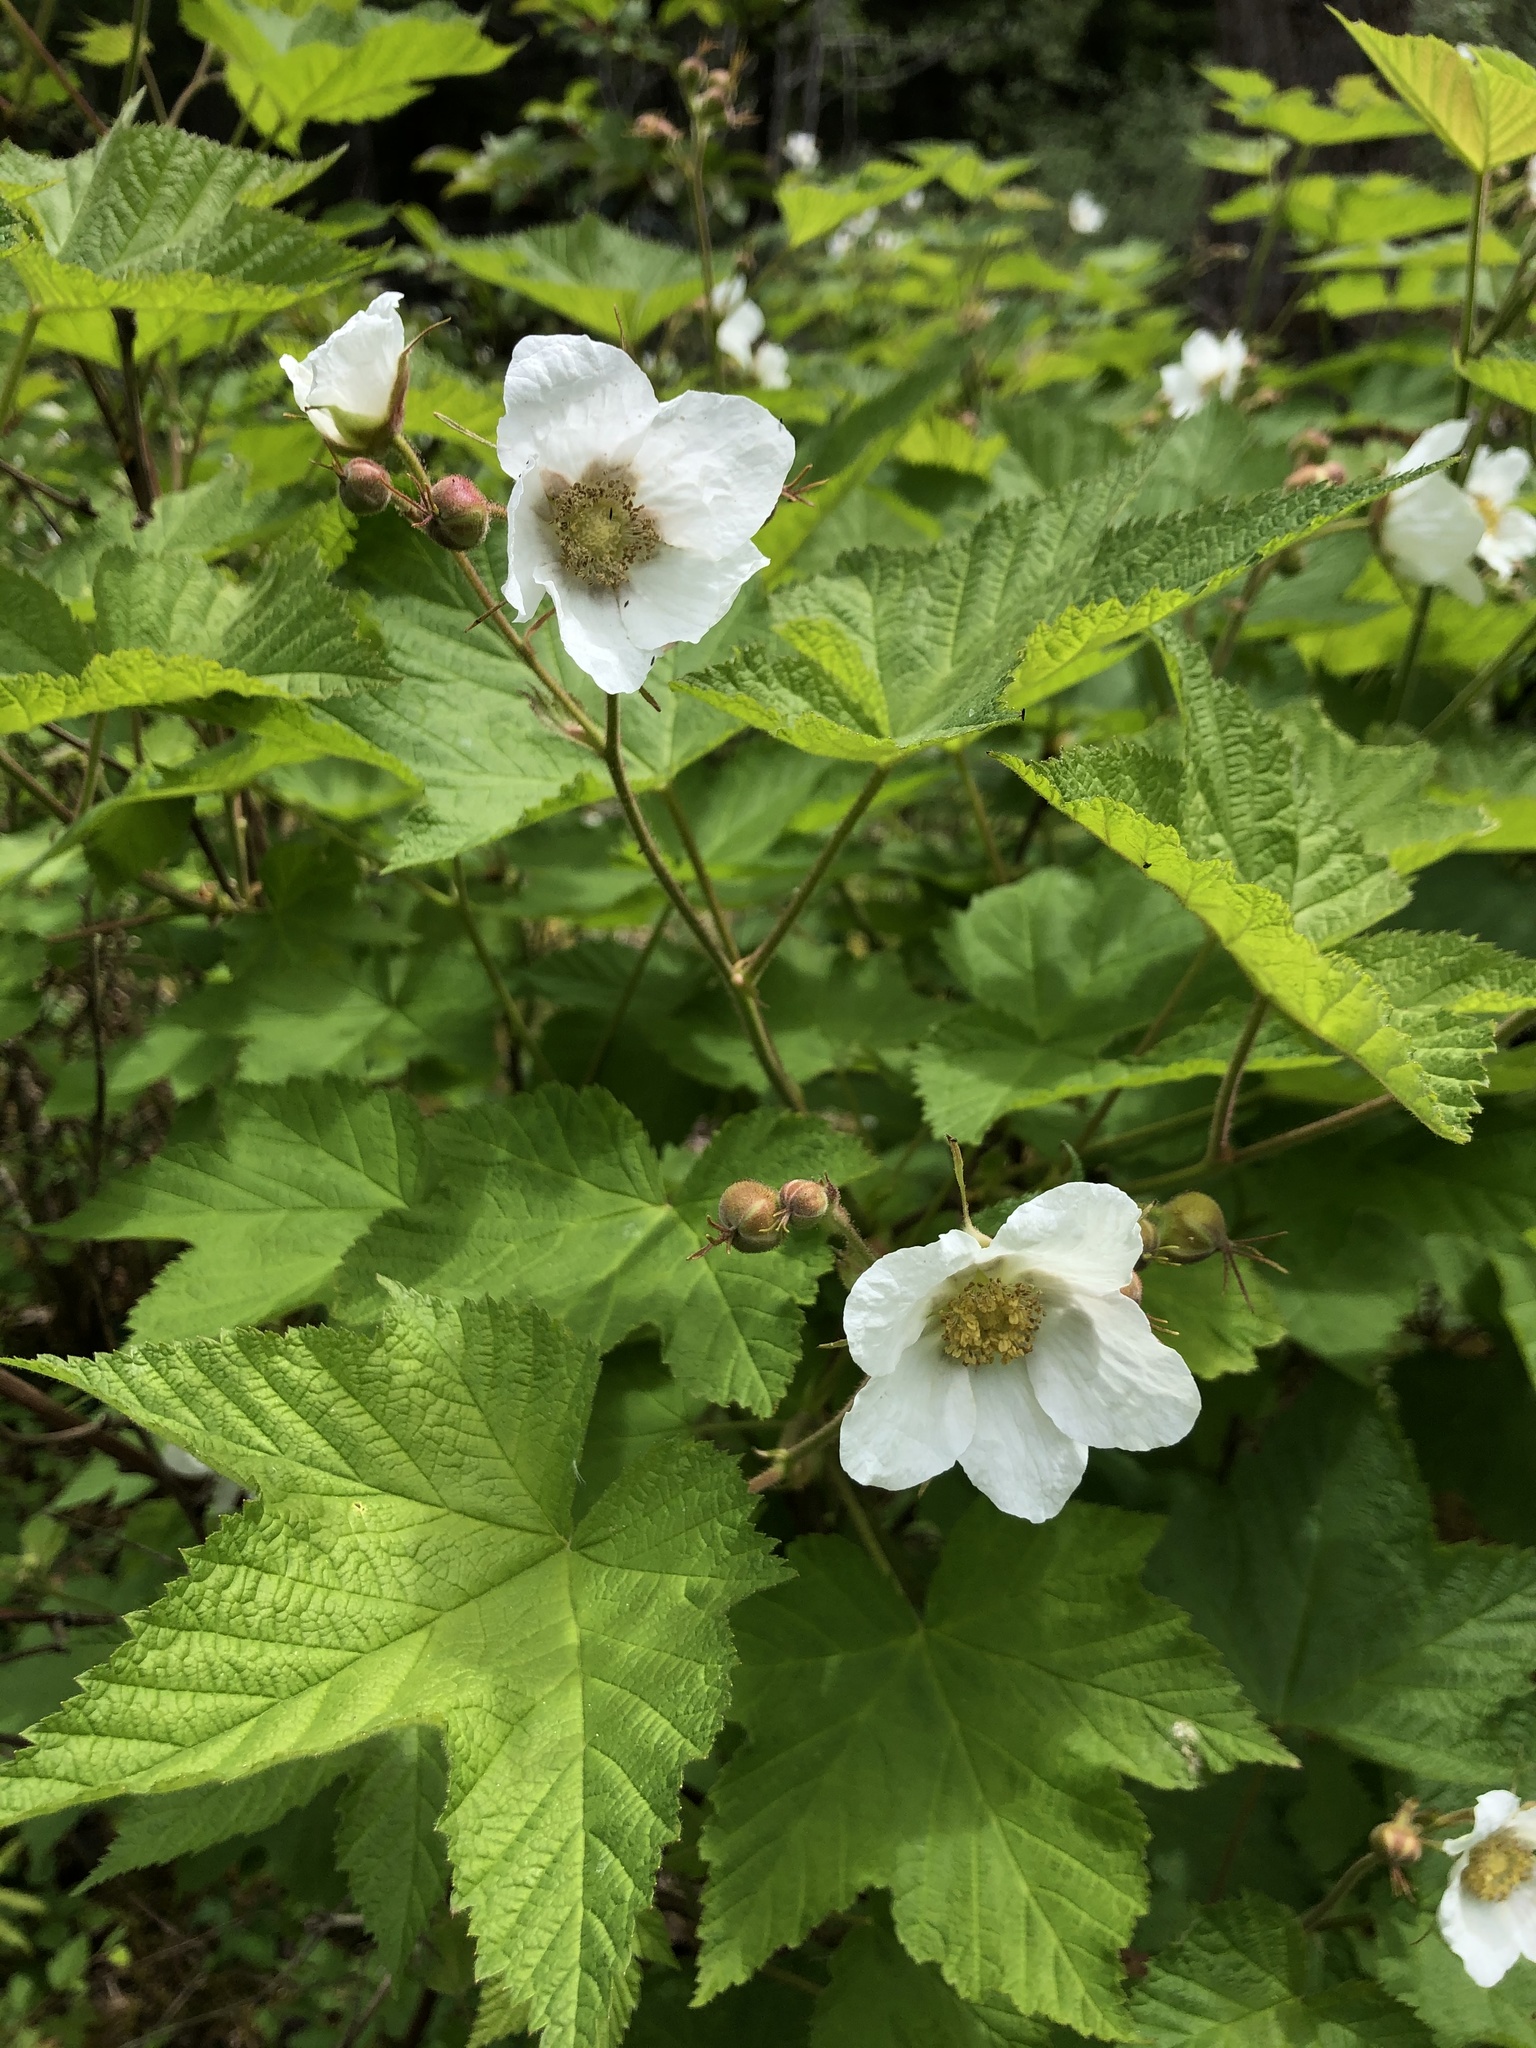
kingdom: Plantae
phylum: Tracheophyta
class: Magnoliopsida
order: Rosales
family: Rosaceae
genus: Rubus
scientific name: Rubus parviflorus
